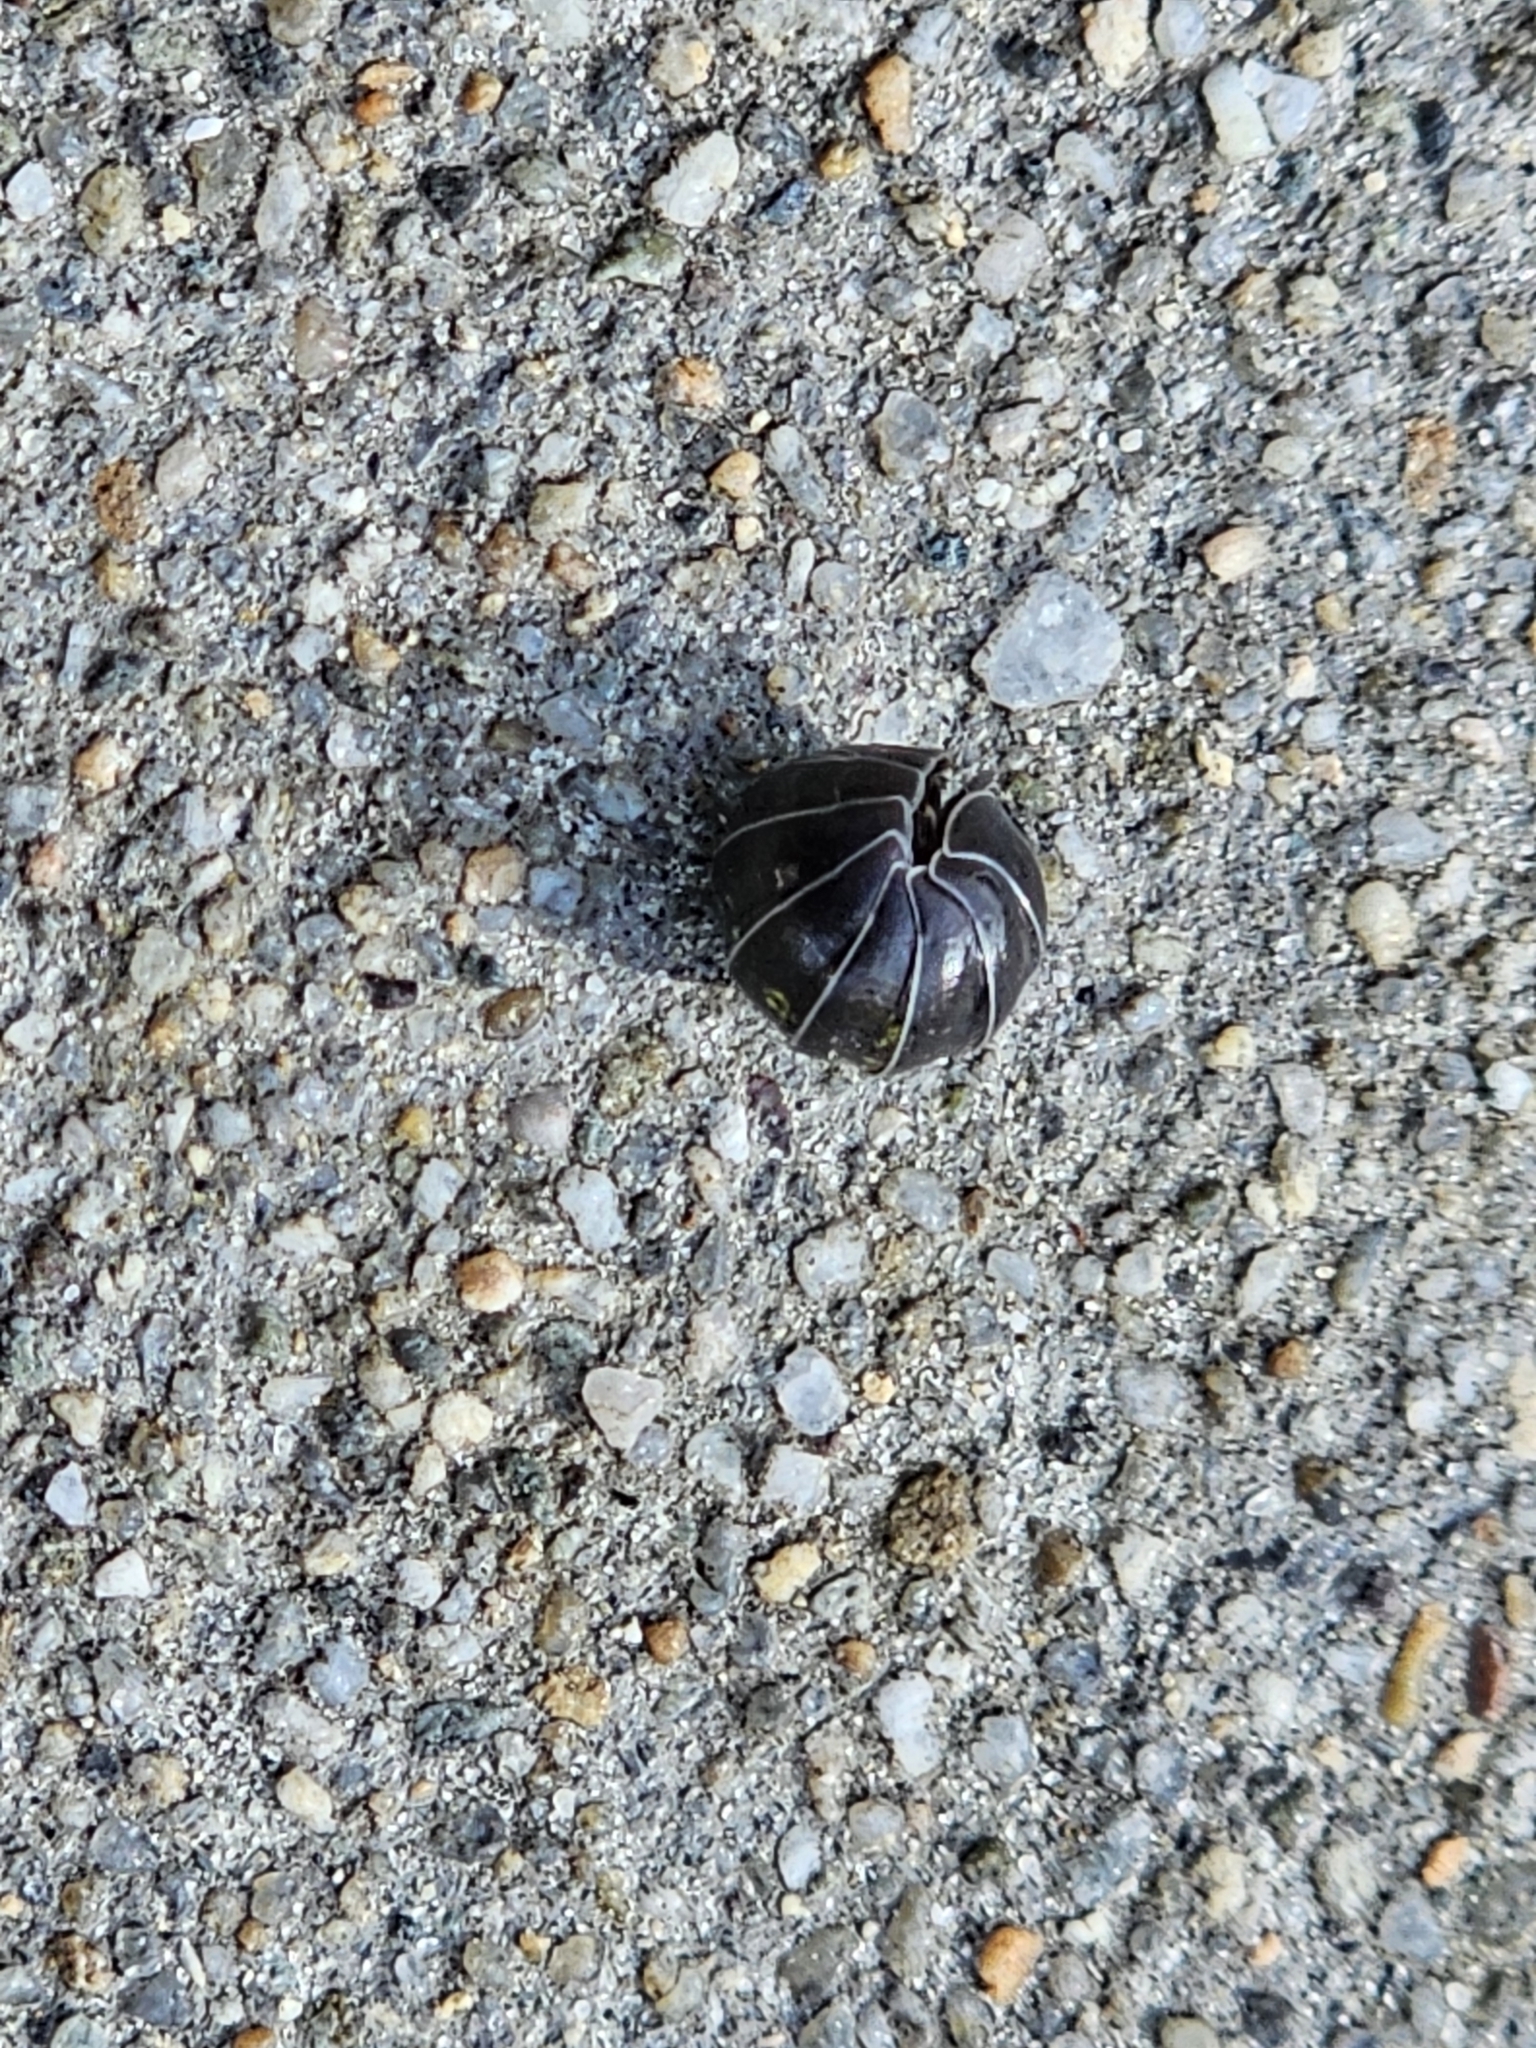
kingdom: Animalia
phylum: Arthropoda
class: Malacostraca
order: Isopoda
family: Armadillidiidae
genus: Armadillidium
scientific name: Armadillidium vulgare
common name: Common pill woodlouse
